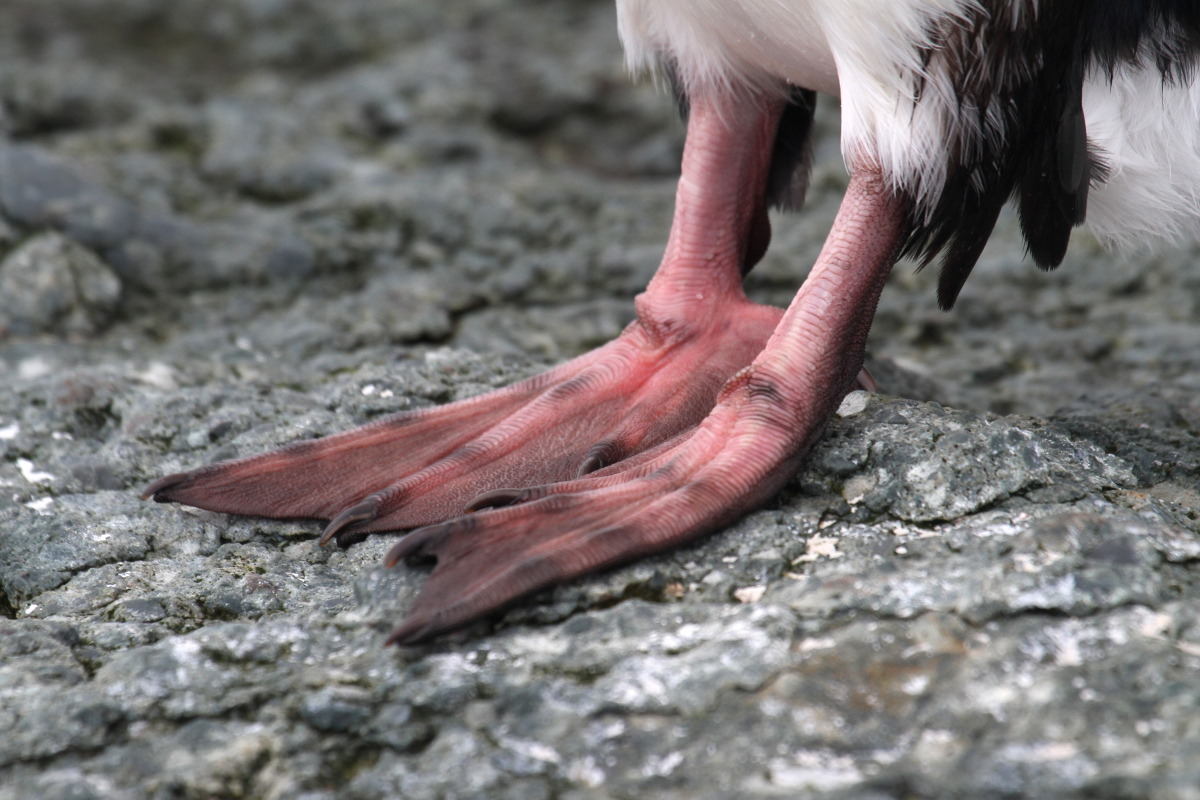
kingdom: Animalia
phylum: Chordata
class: Aves
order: Suliformes
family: Phalacrocoracidae
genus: Leucocarbo
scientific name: Leucocarbo atriceps
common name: Imperial shag
